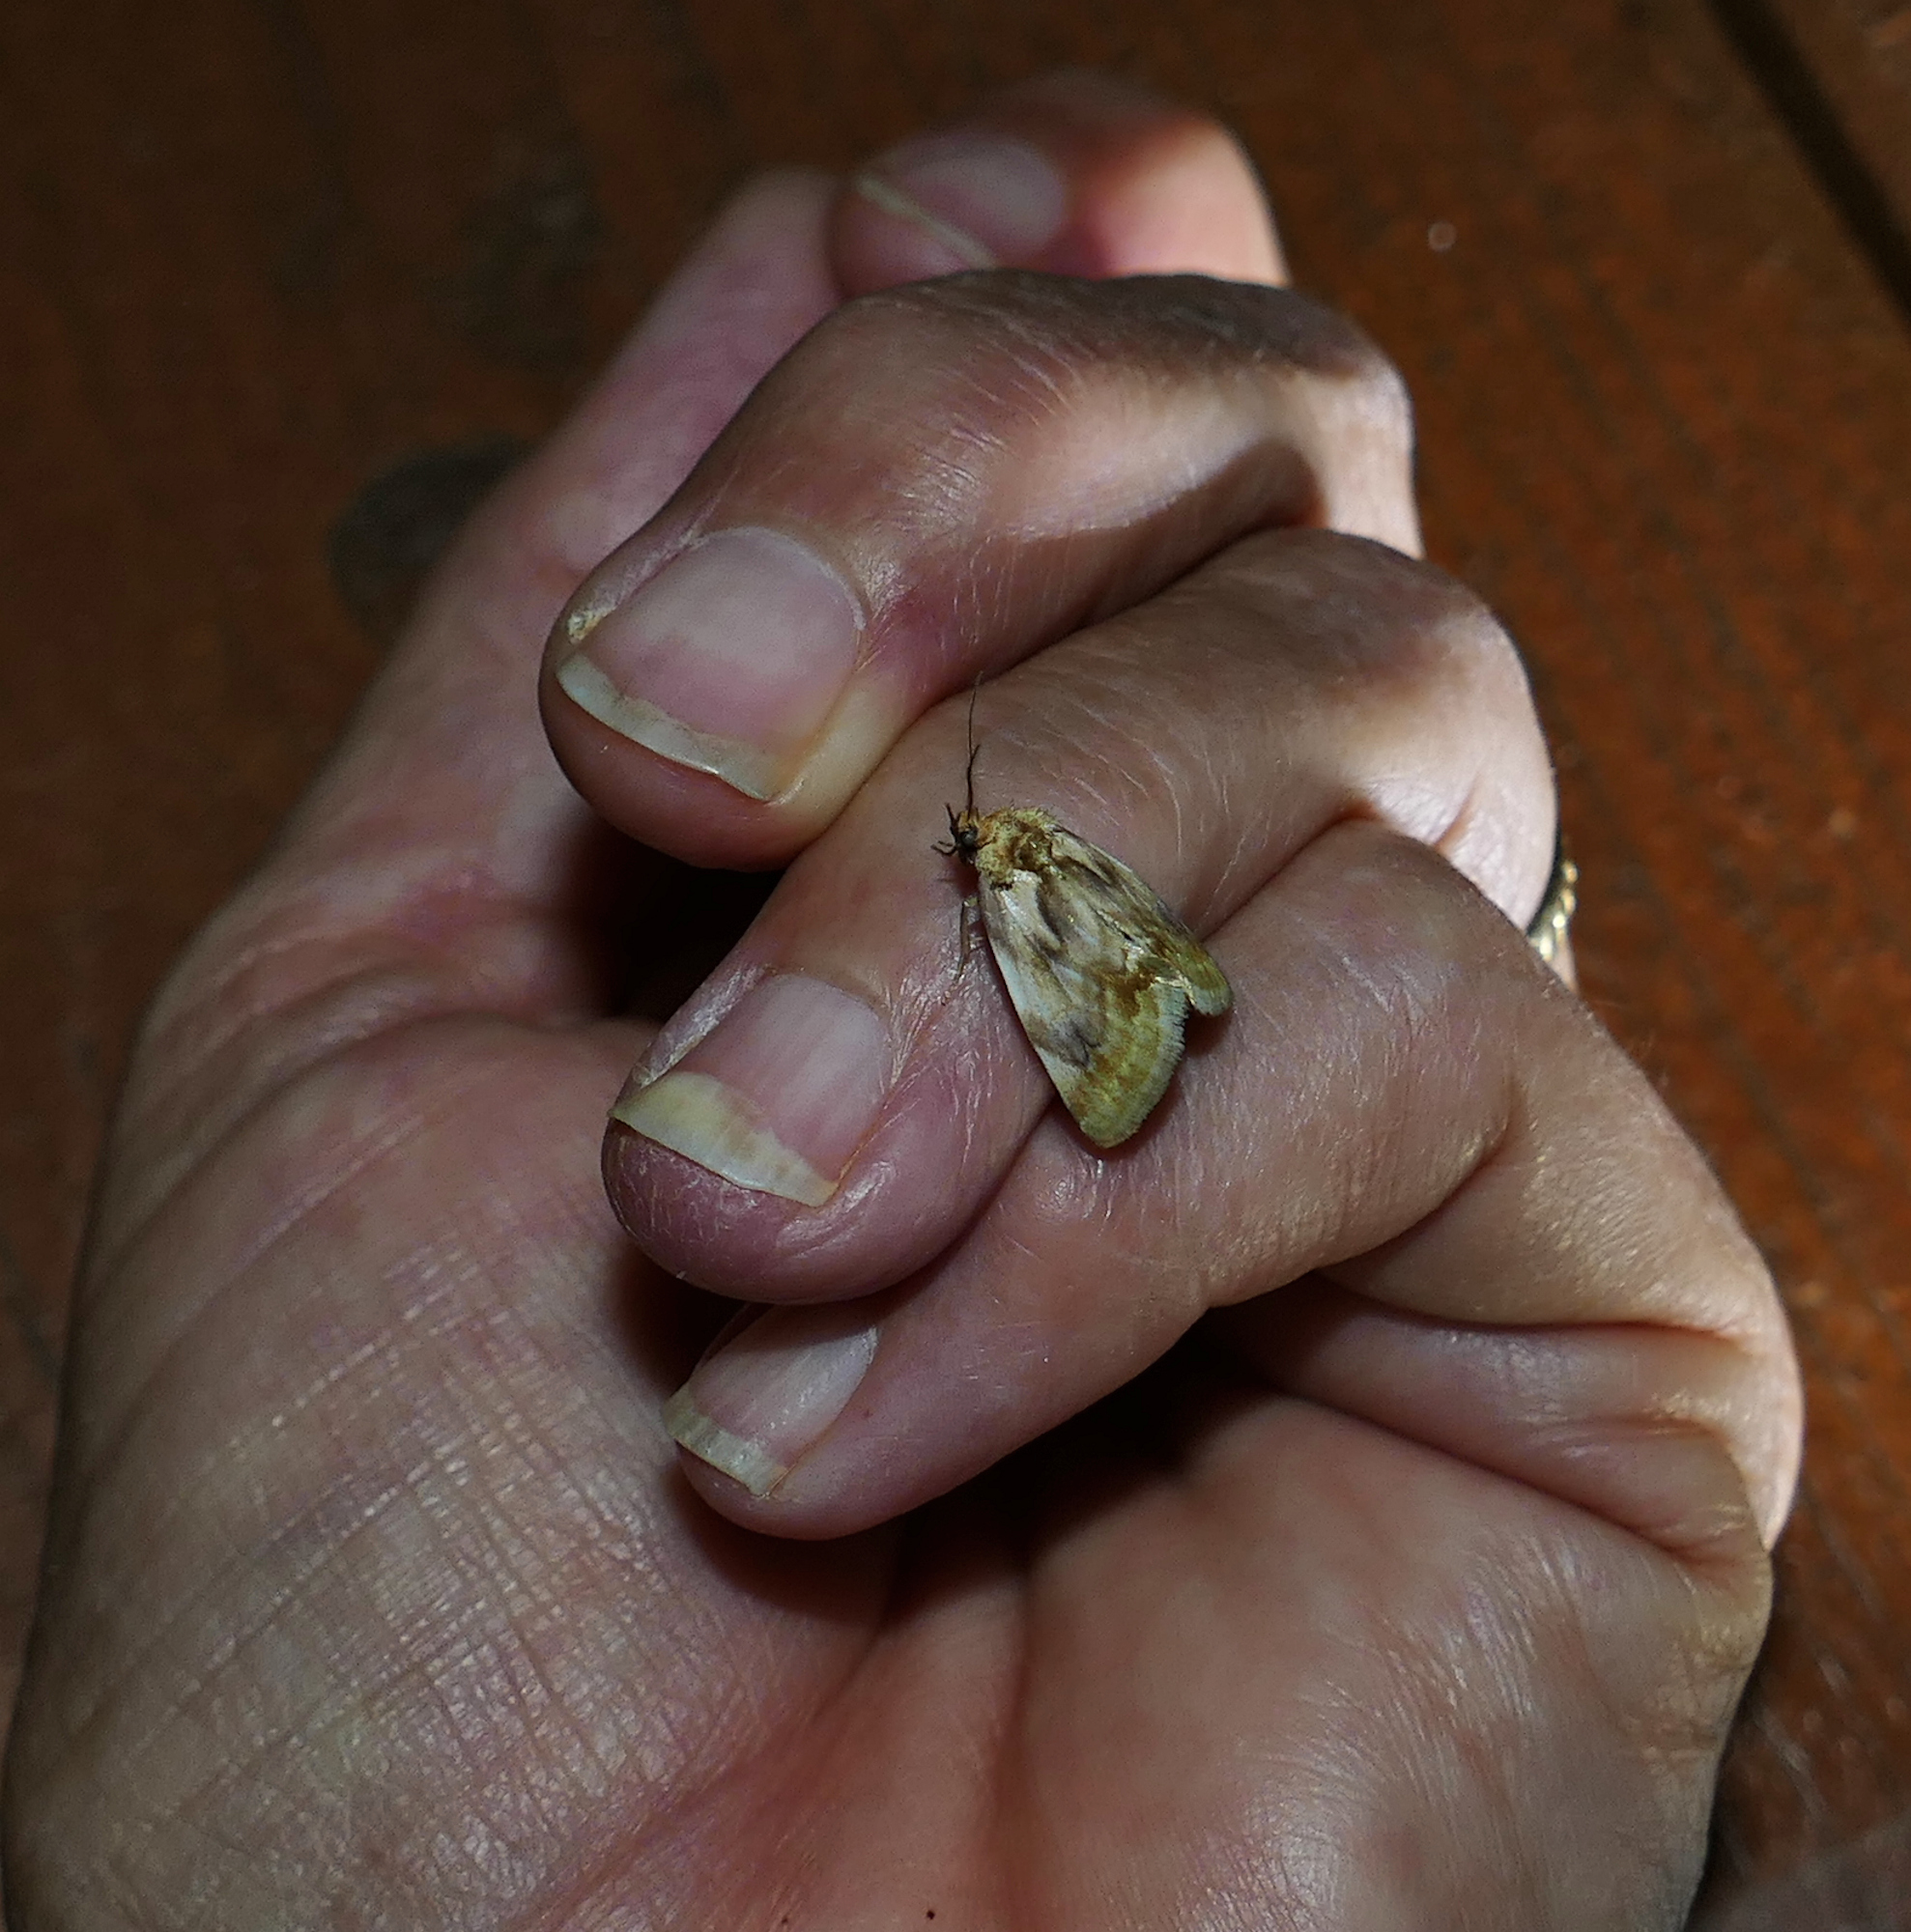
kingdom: Animalia
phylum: Arthropoda
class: Insecta
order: Lepidoptera
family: Noctuidae
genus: Chamaeclea
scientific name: Chamaeclea pernana
